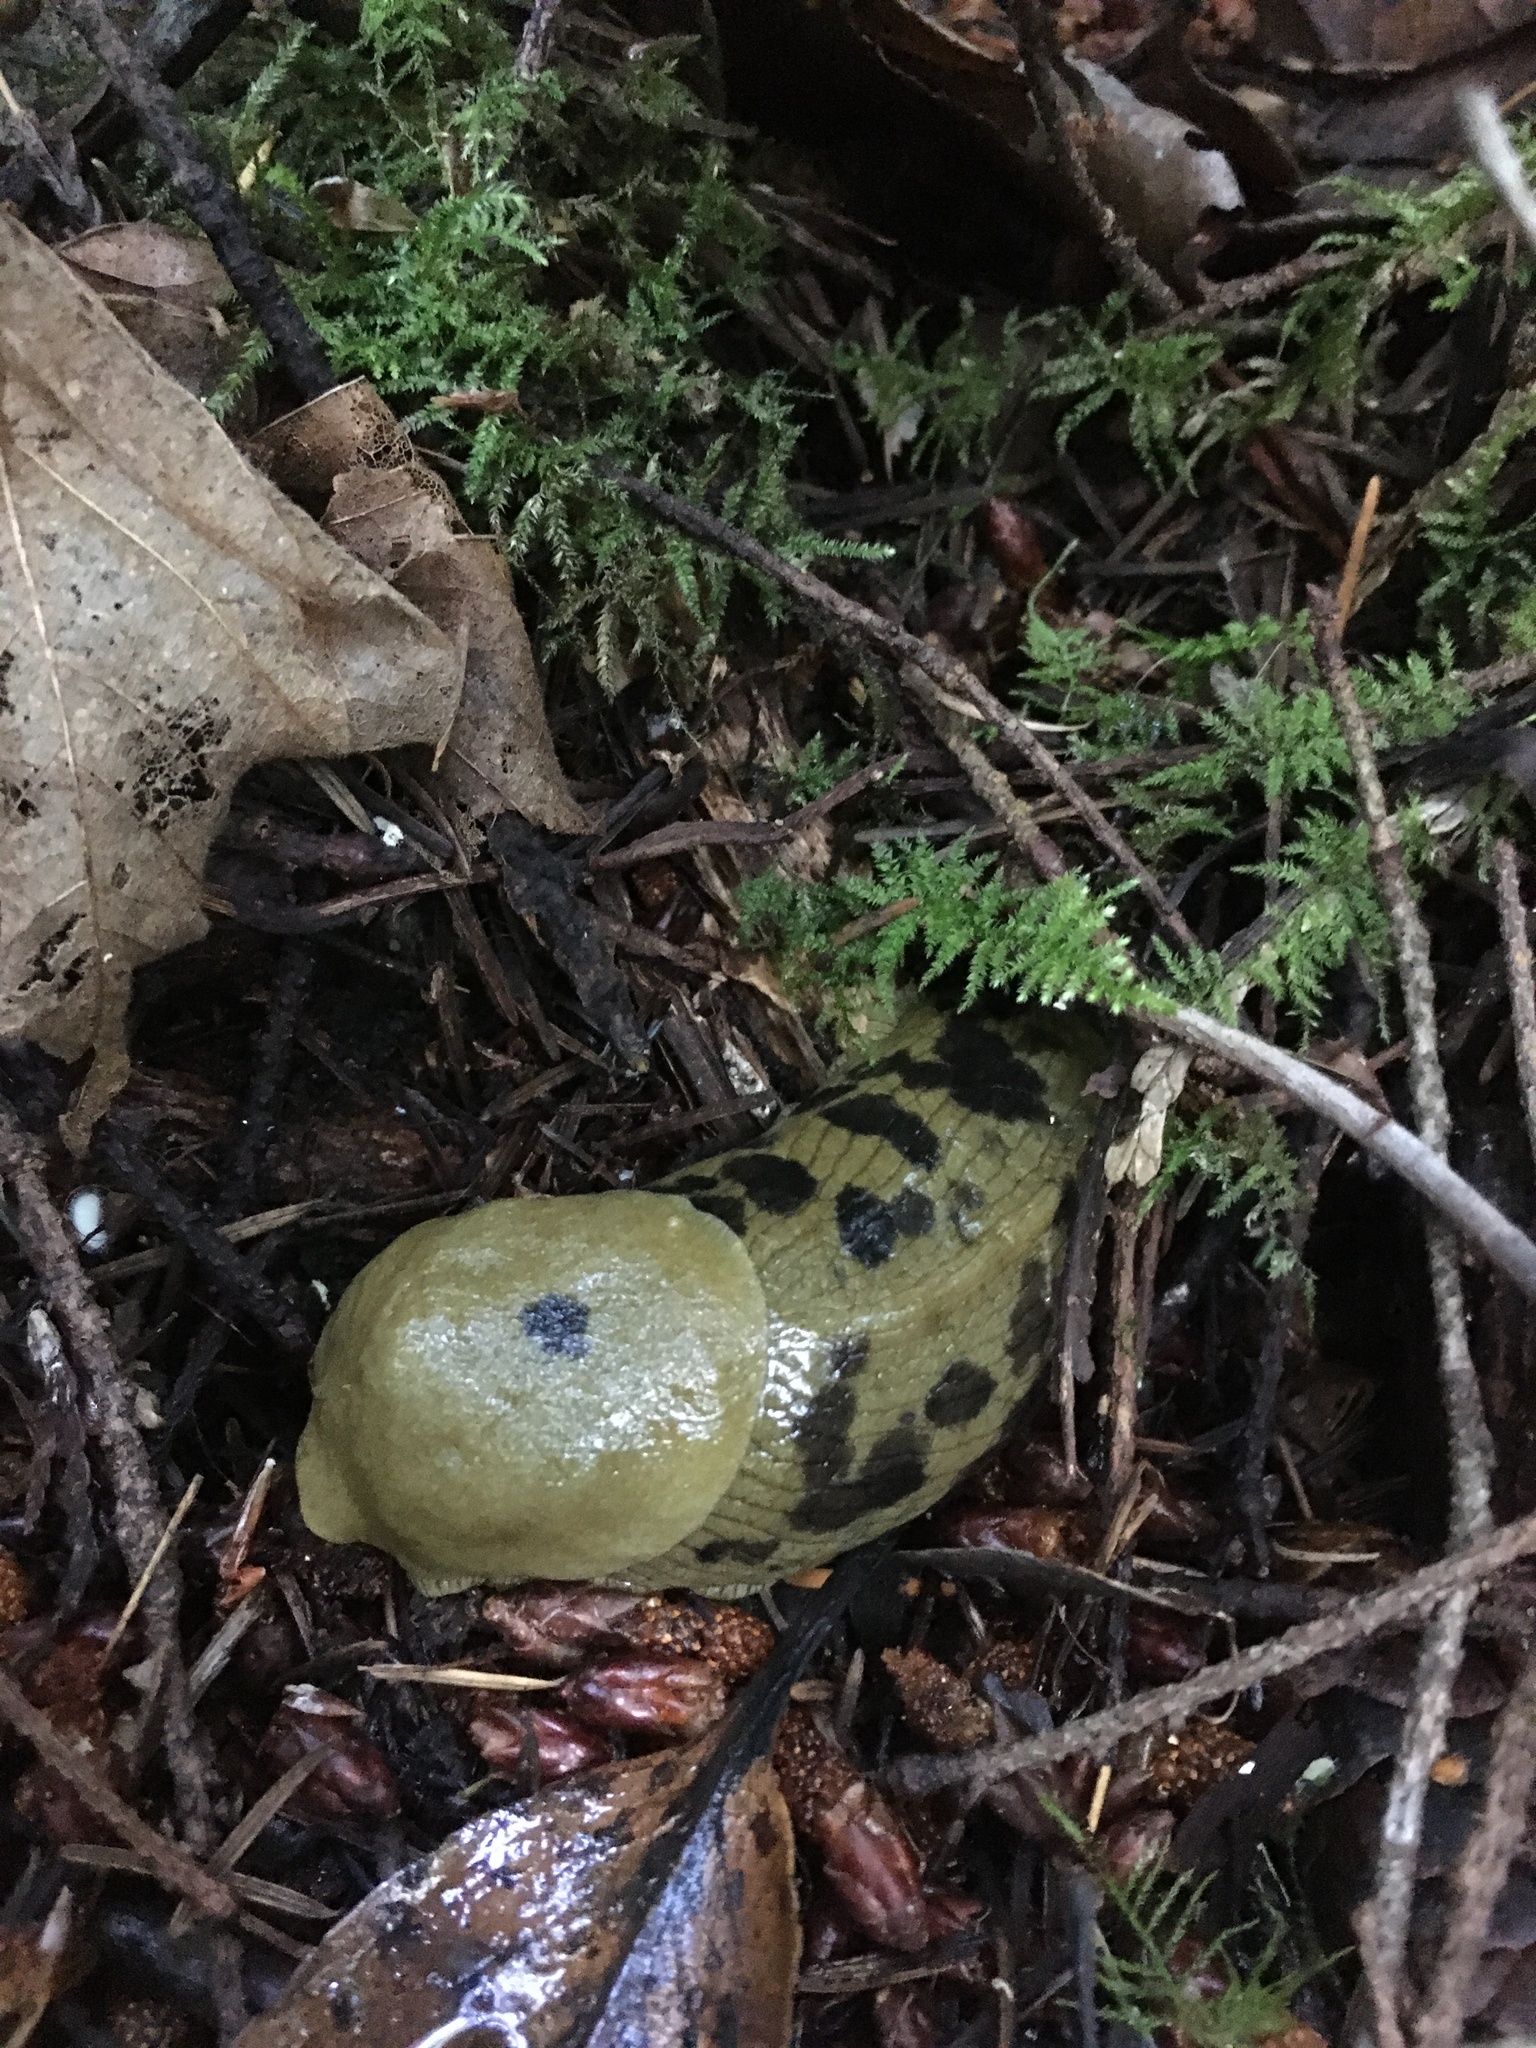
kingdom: Animalia
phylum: Mollusca
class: Gastropoda
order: Stylommatophora
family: Ariolimacidae
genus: Ariolimax
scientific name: Ariolimax columbianus
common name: Pacific banana slug
